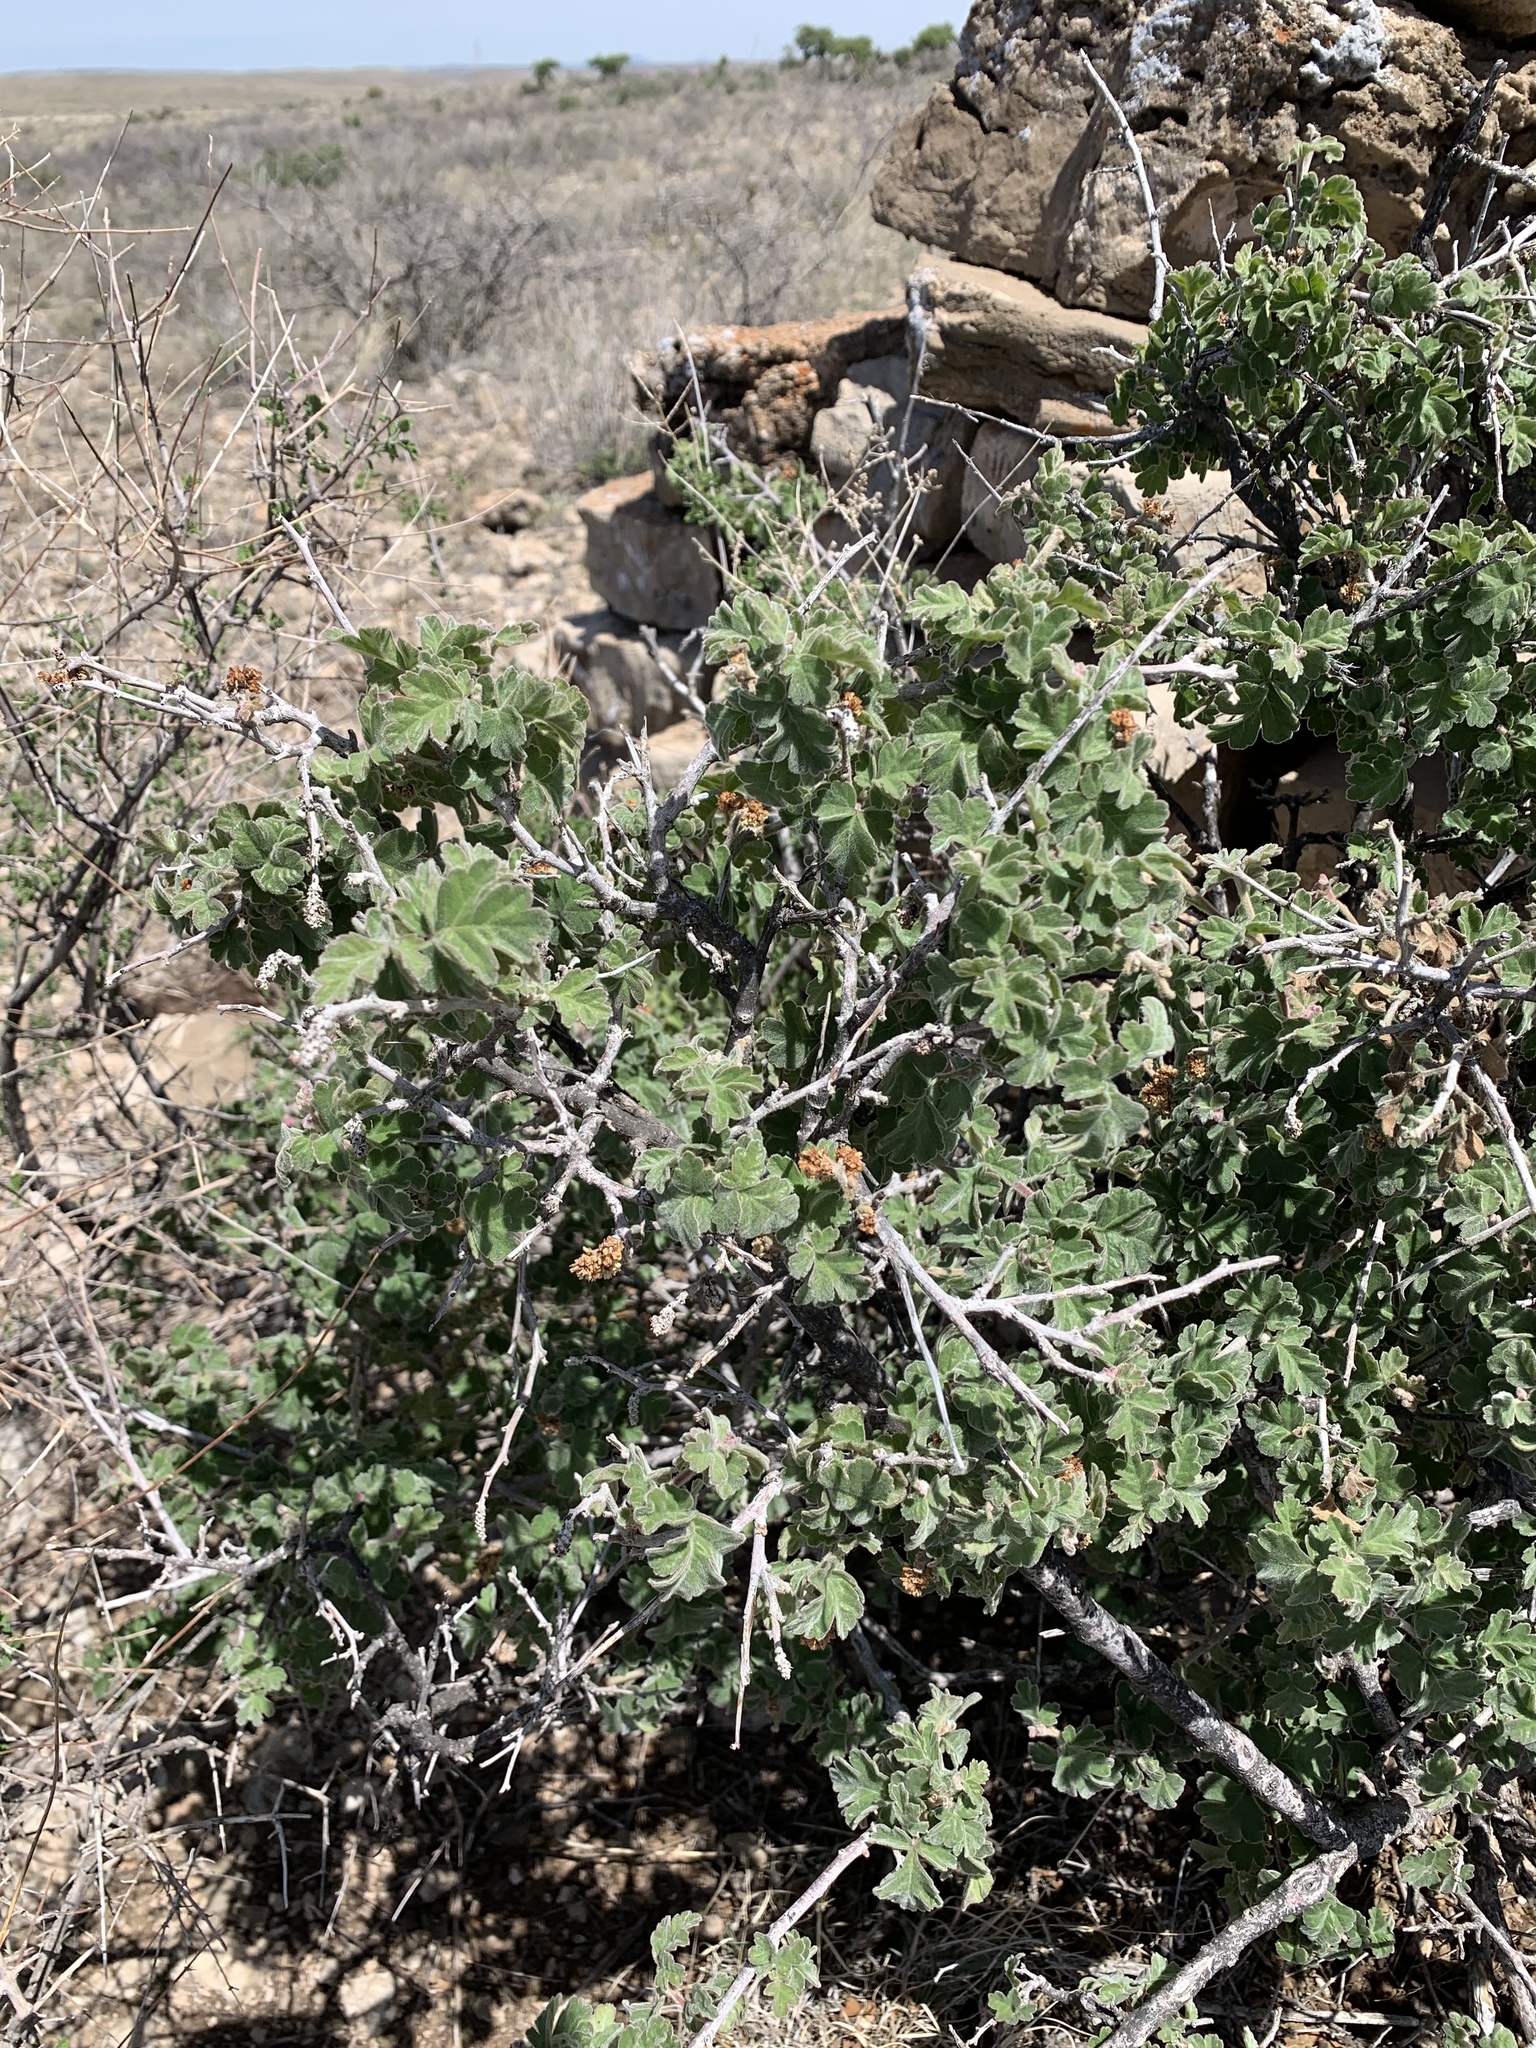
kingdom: Plantae
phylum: Tracheophyta
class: Magnoliopsida
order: Sapindales
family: Anacardiaceae
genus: Rhus
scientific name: Rhus aromatica
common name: Aromatic sumac
